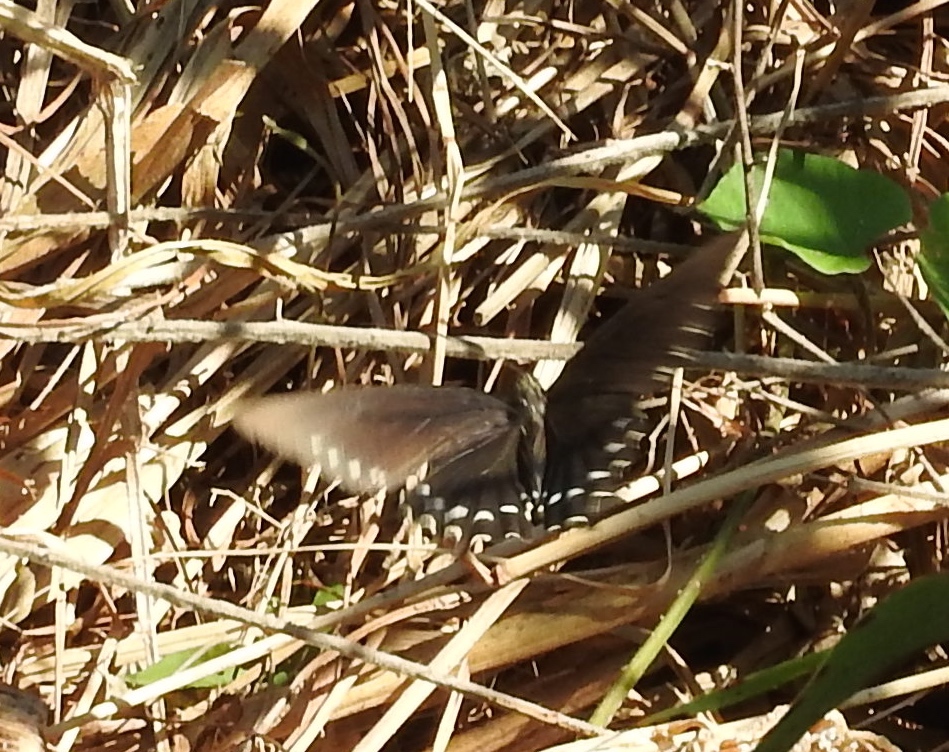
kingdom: Animalia
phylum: Arthropoda
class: Insecta
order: Lepidoptera
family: Papilionidae
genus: Battus
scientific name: Battus philenor
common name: Pipevine swallowtail
